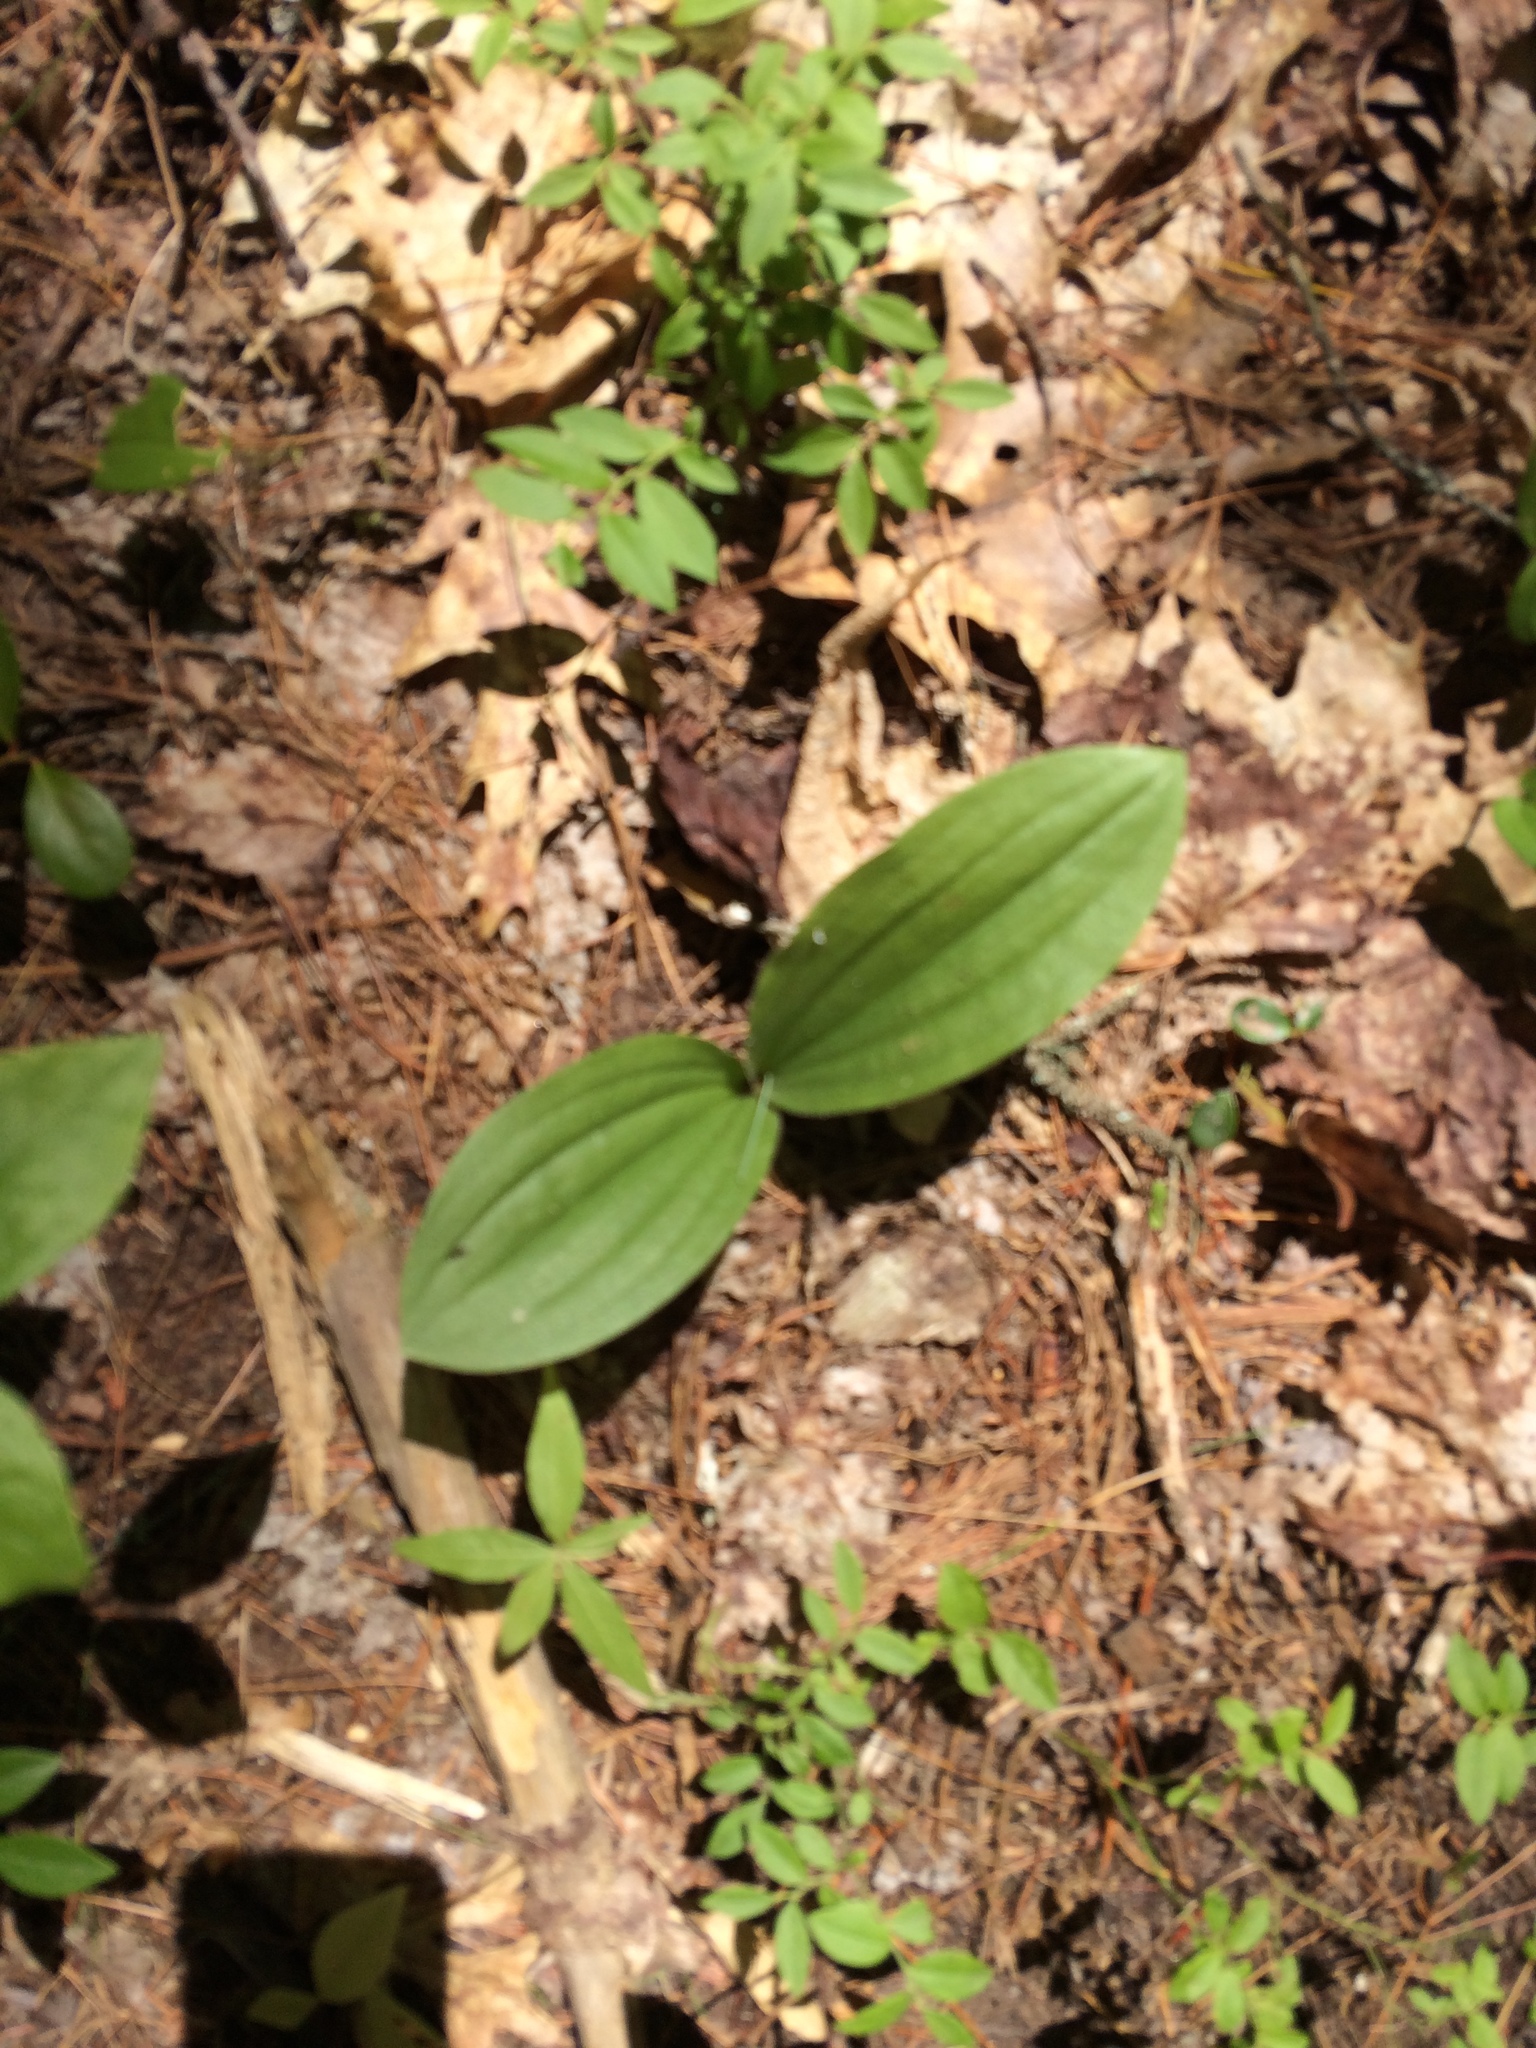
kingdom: Plantae
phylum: Tracheophyta
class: Liliopsida
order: Asparagales
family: Orchidaceae
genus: Cypripedium
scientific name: Cypripedium acaule
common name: Pink lady's-slipper
